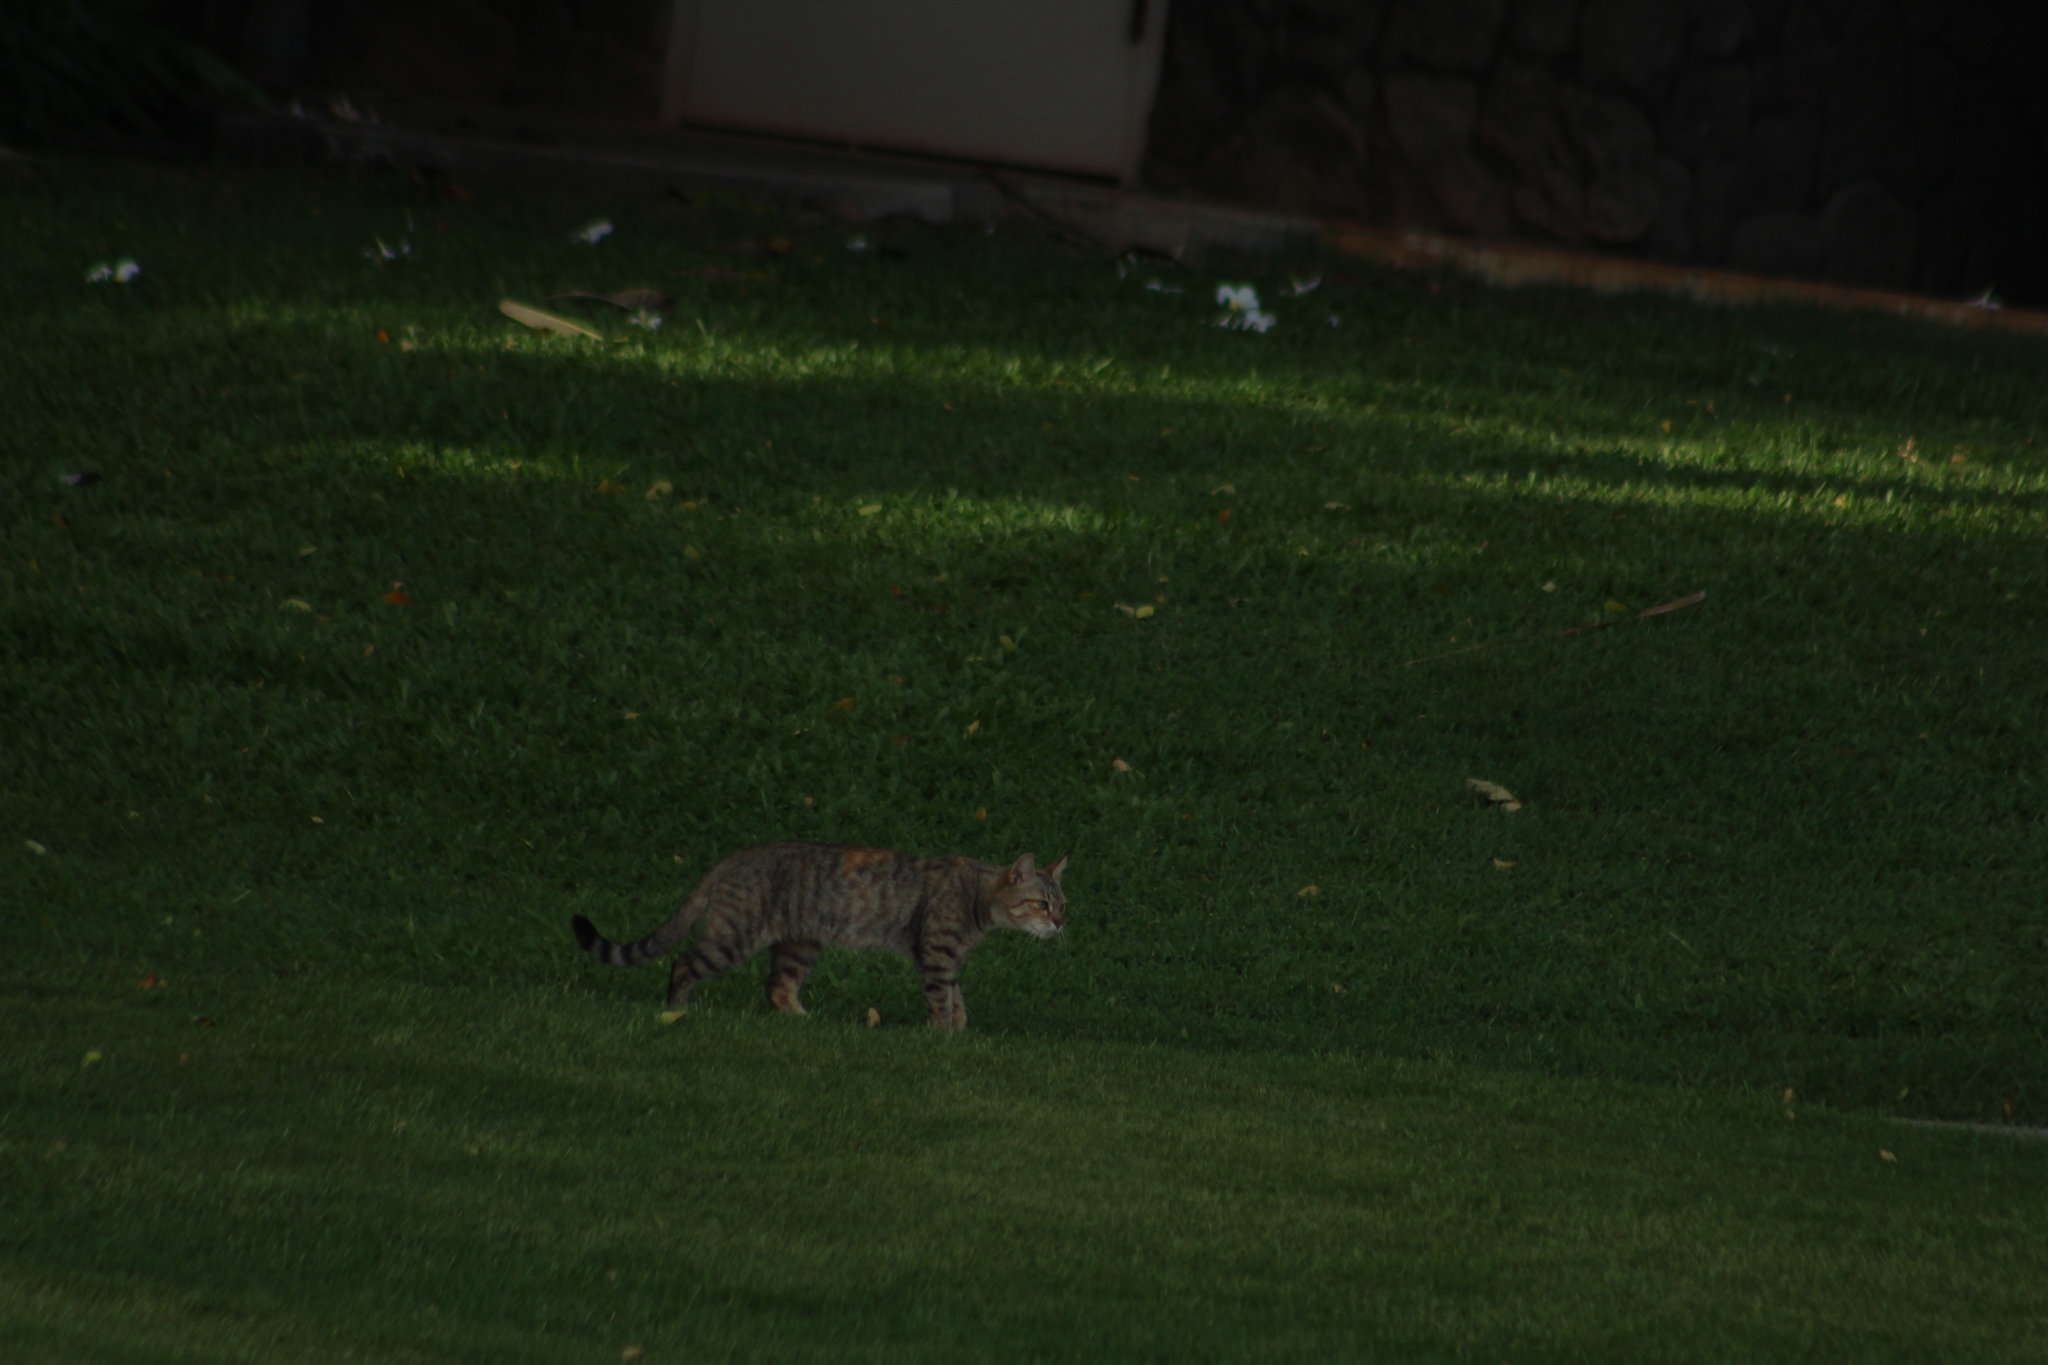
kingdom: Animalia
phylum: Chordata
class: Mammalia
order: Carnivora
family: Felidae
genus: Felis
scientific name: Felis catus
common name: Domestic cat
